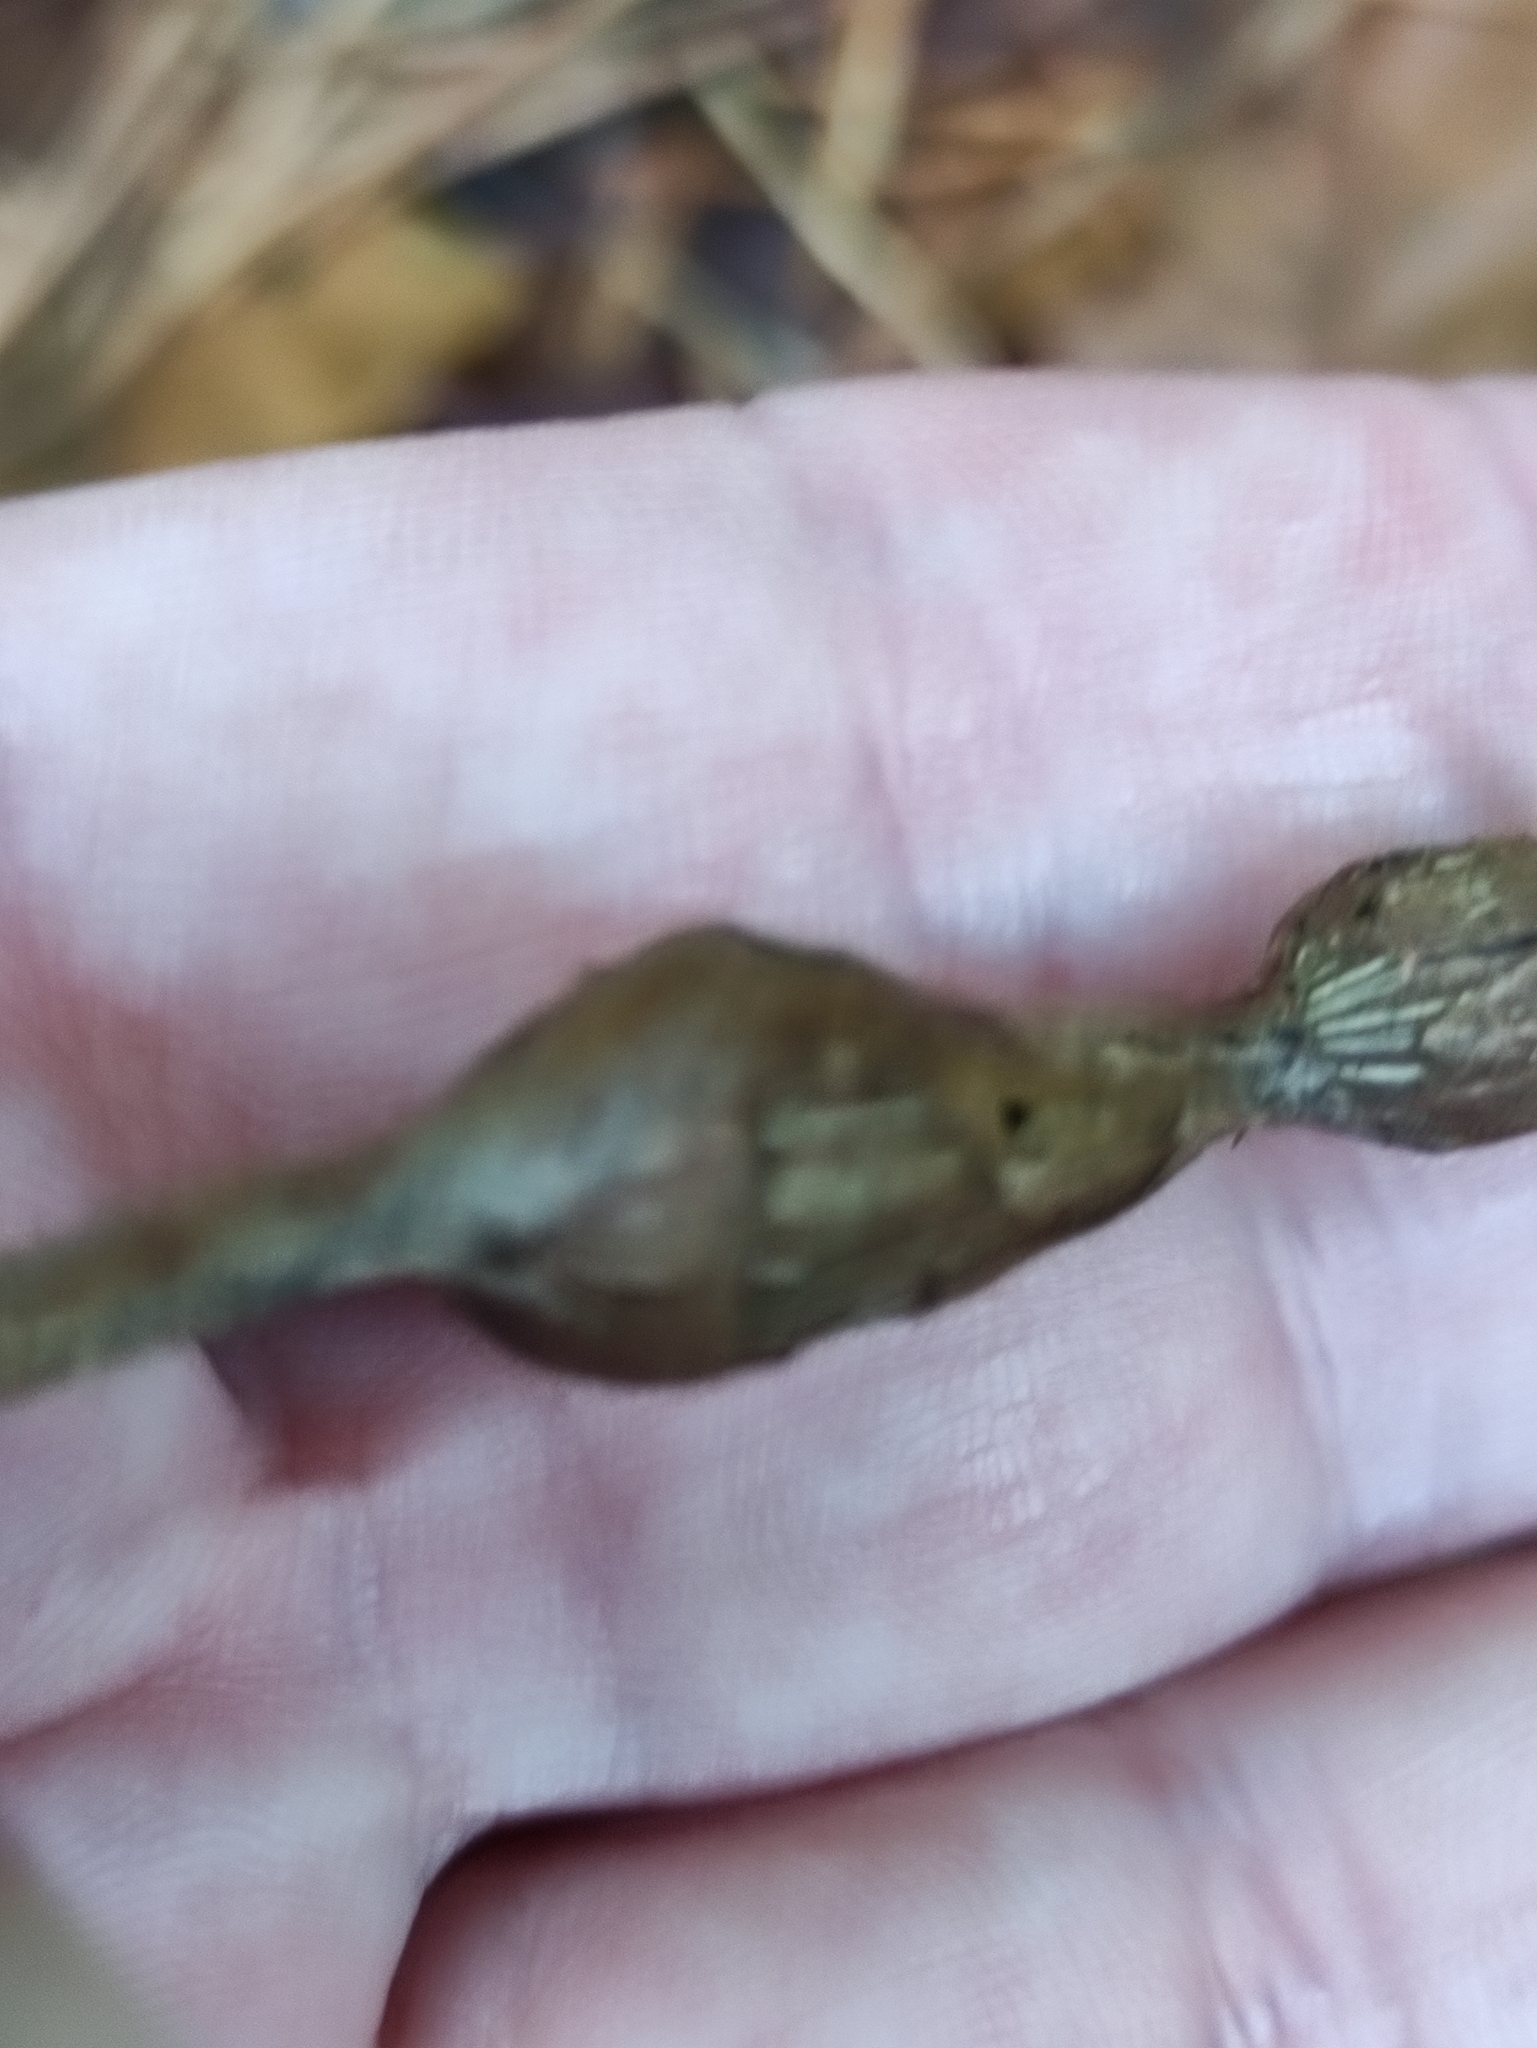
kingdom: Animalia
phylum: Arthropoda
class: Insecta
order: Diptera
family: Cecidomyiidae
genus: Lasioptera
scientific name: Lasioptera rubi
